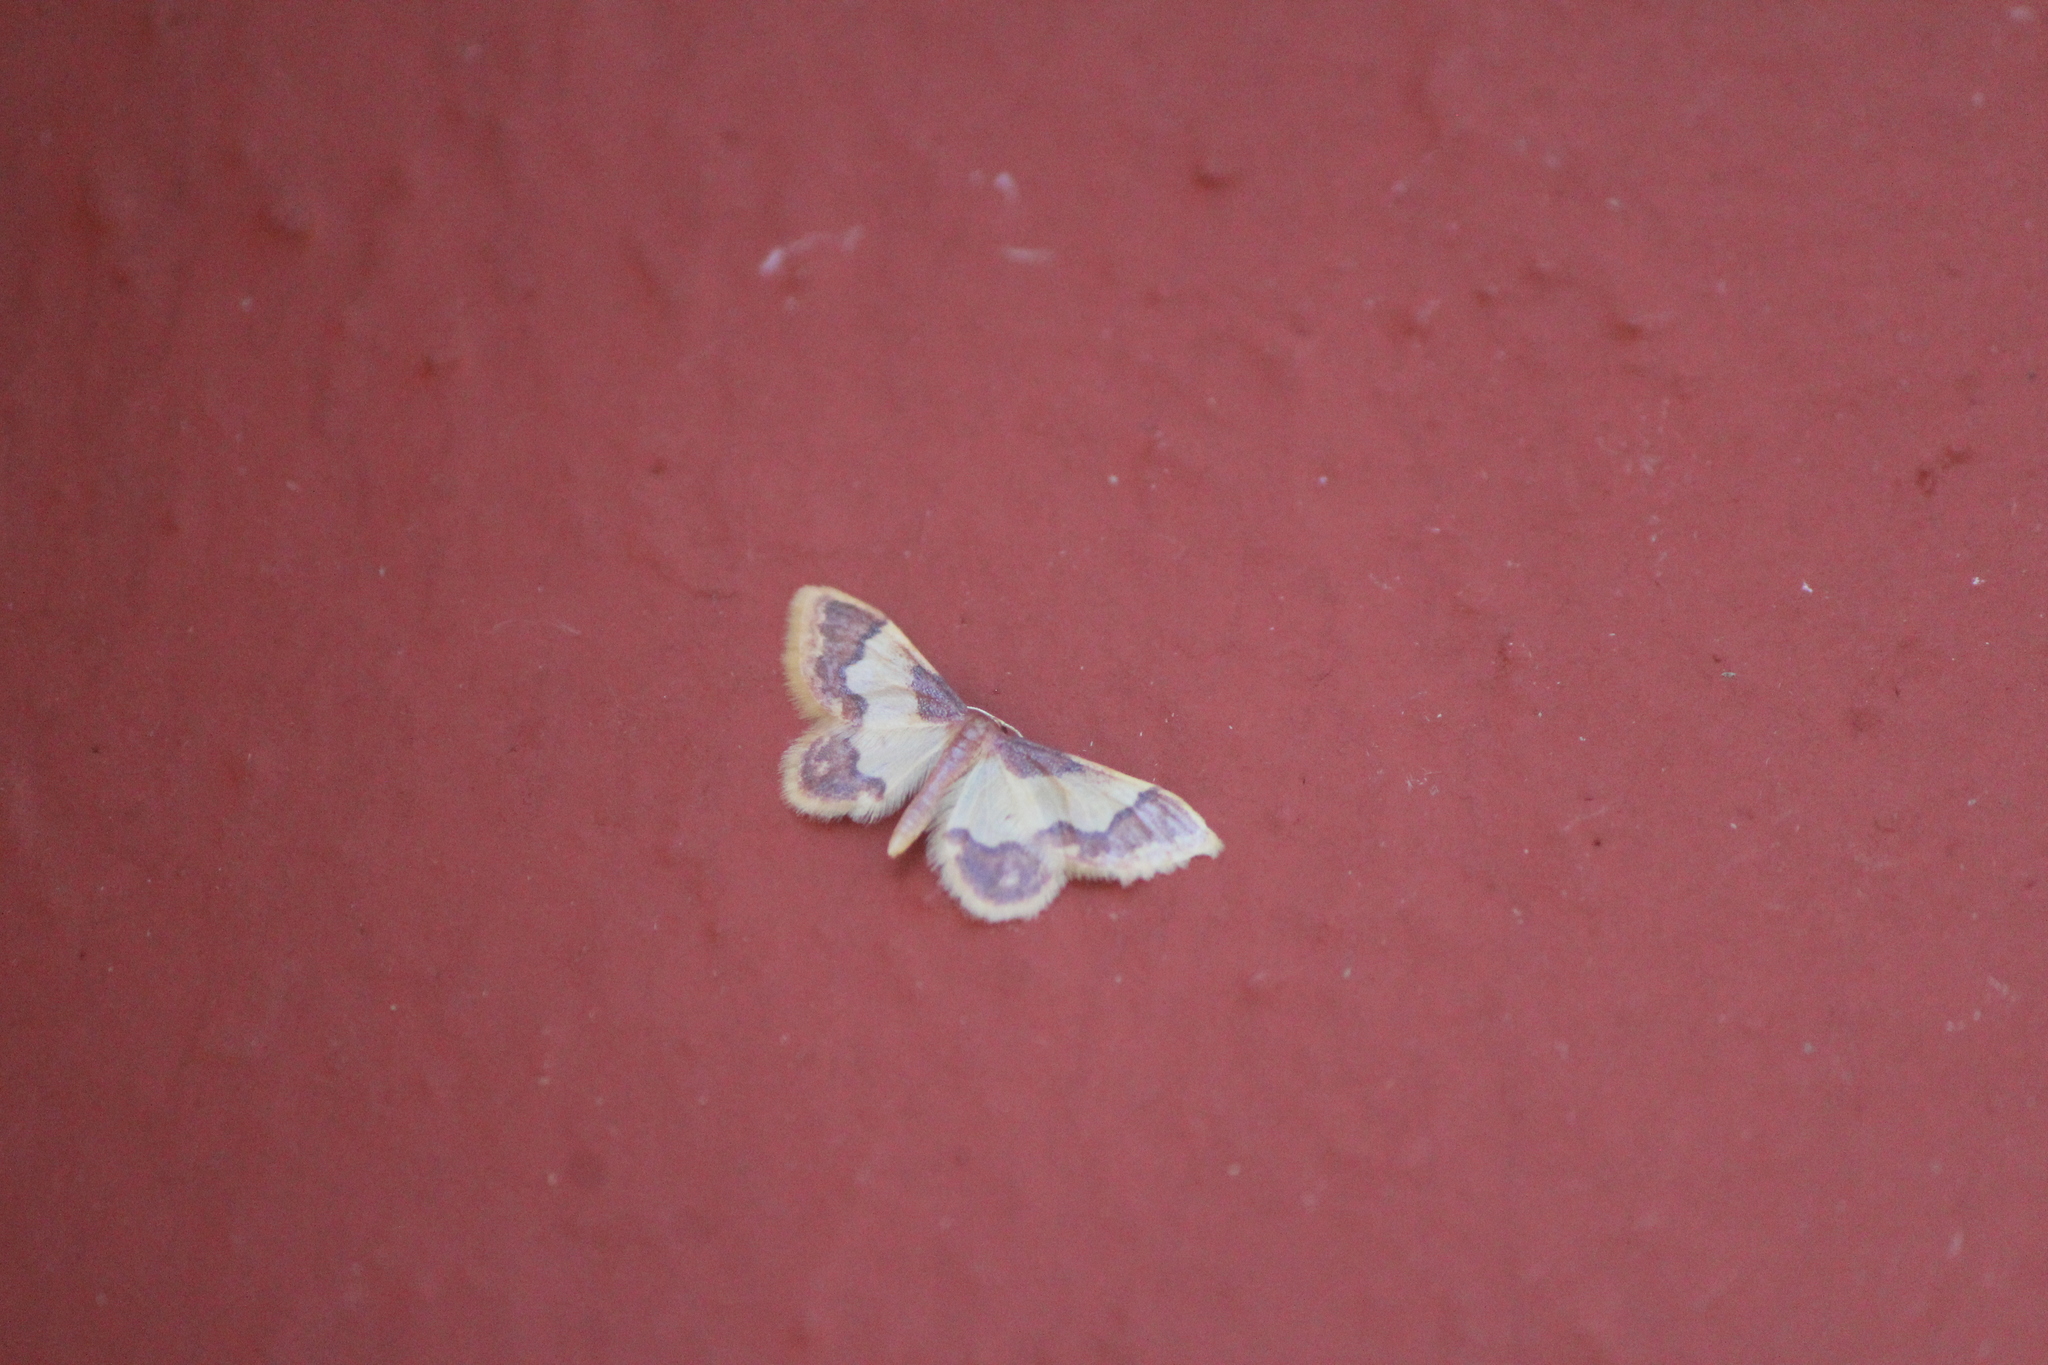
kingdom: Animalia
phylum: Arthropoda
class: Insecta
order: Lepidoptera
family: Geometridae
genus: Idaea
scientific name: Idaea basinta
